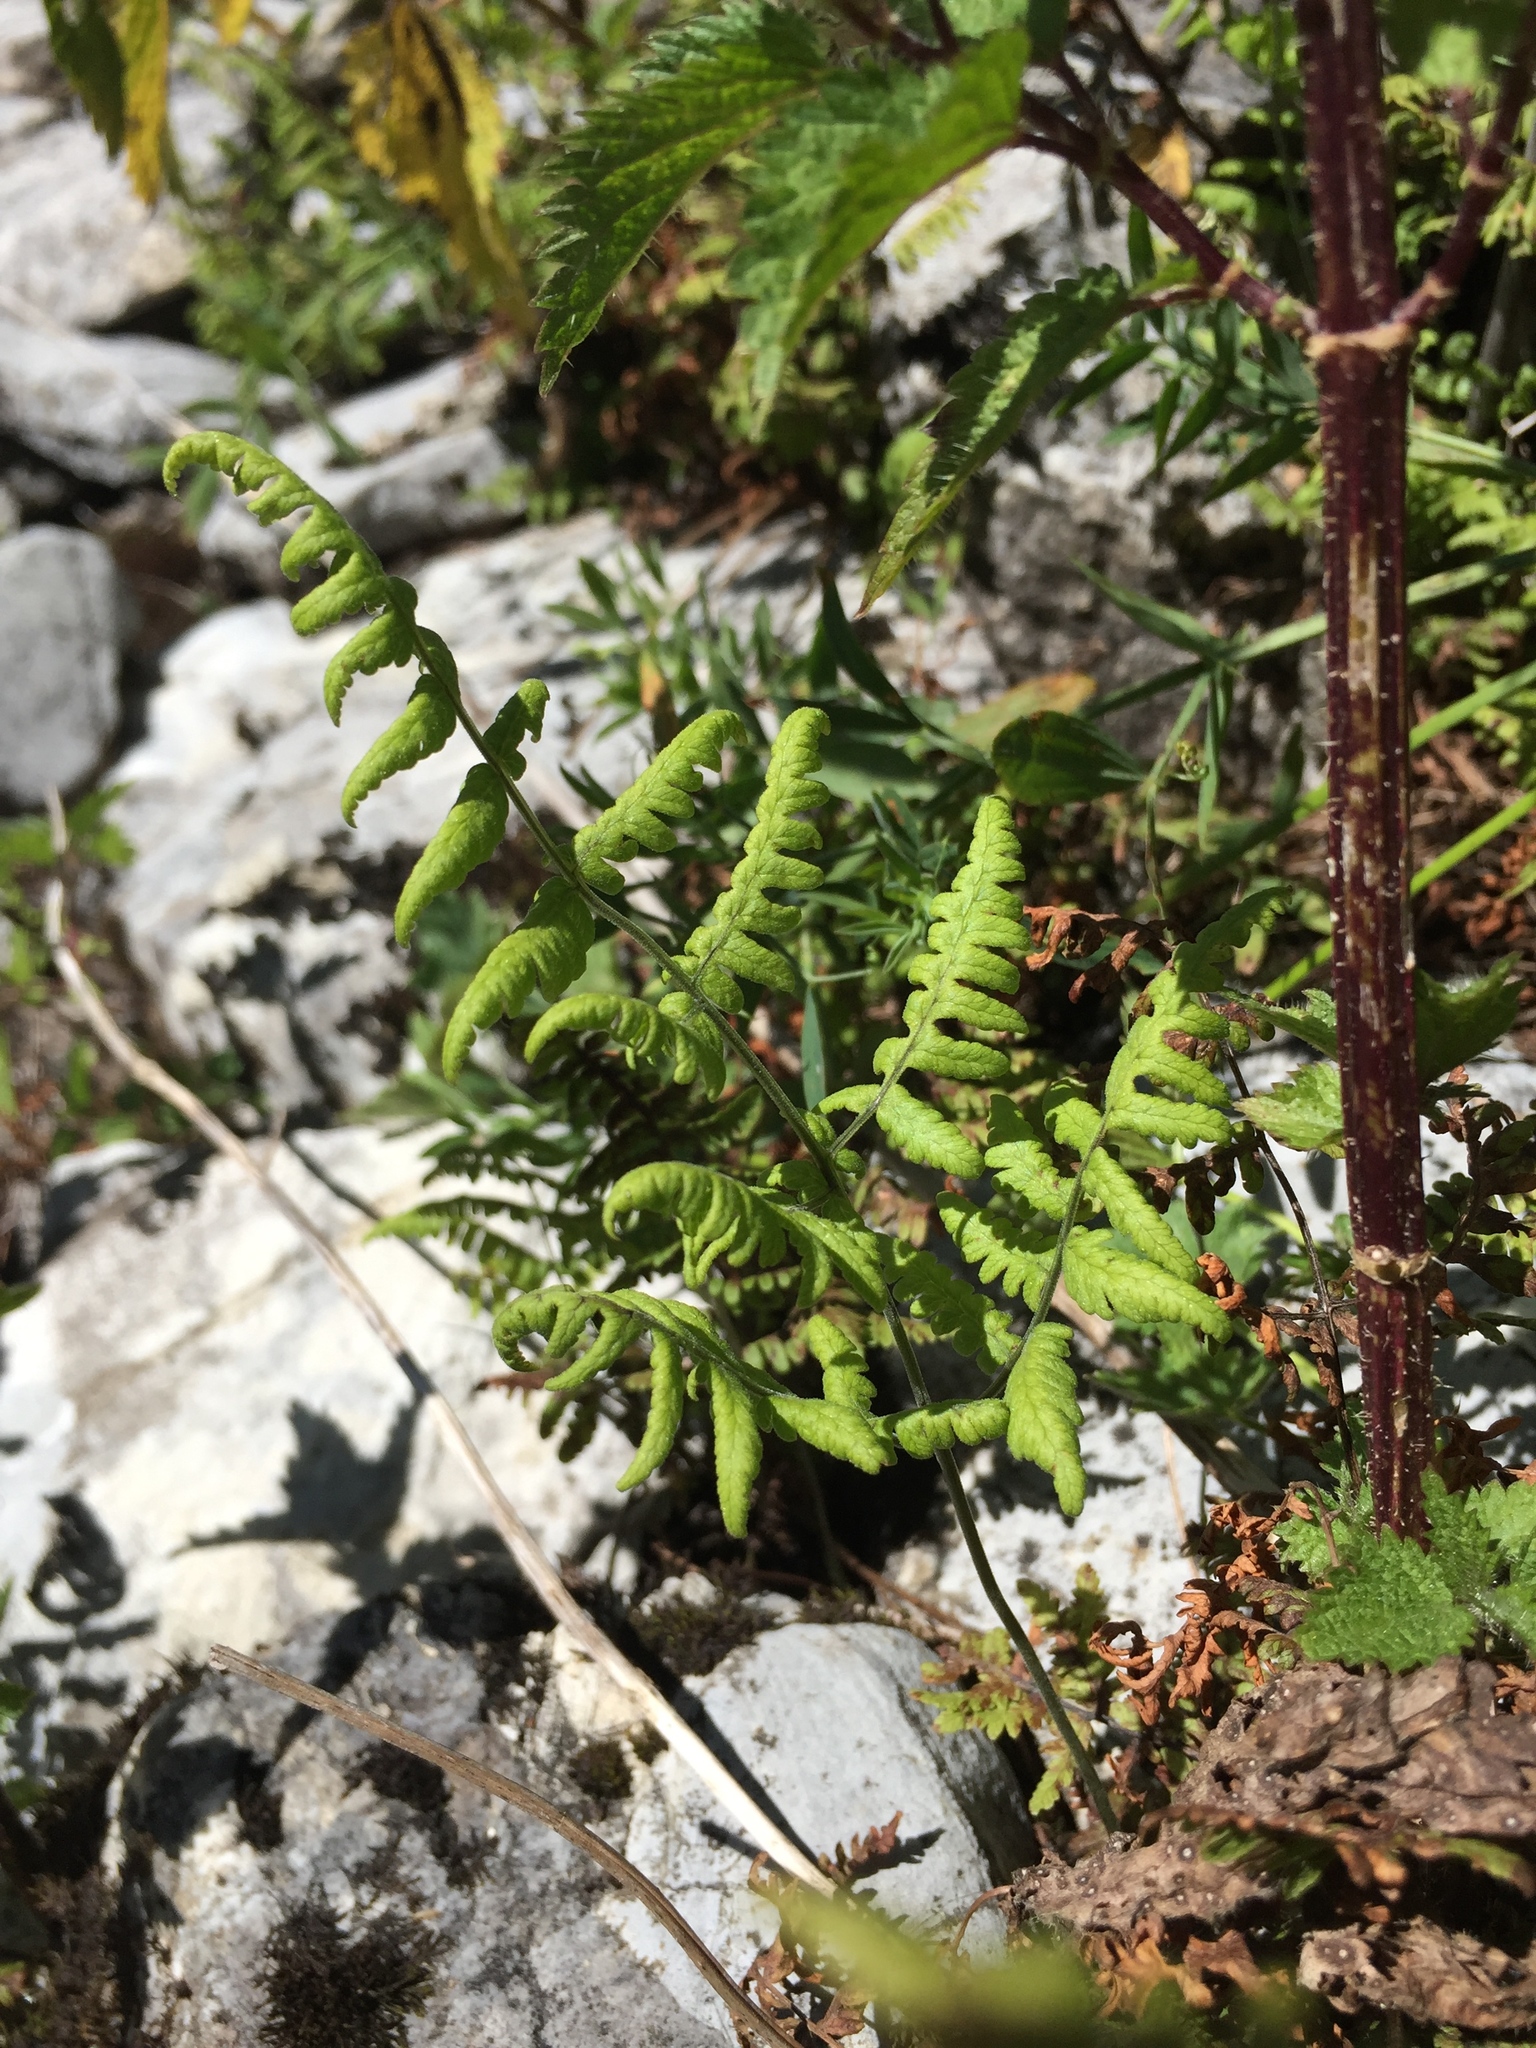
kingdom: Plantae
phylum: Tracheophyta
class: Polypodiopsida
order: Polypodiales
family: Cystopteridaceae
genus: Gymnocarpium
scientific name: Gymnocarpium robertianum
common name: Limestone fern
